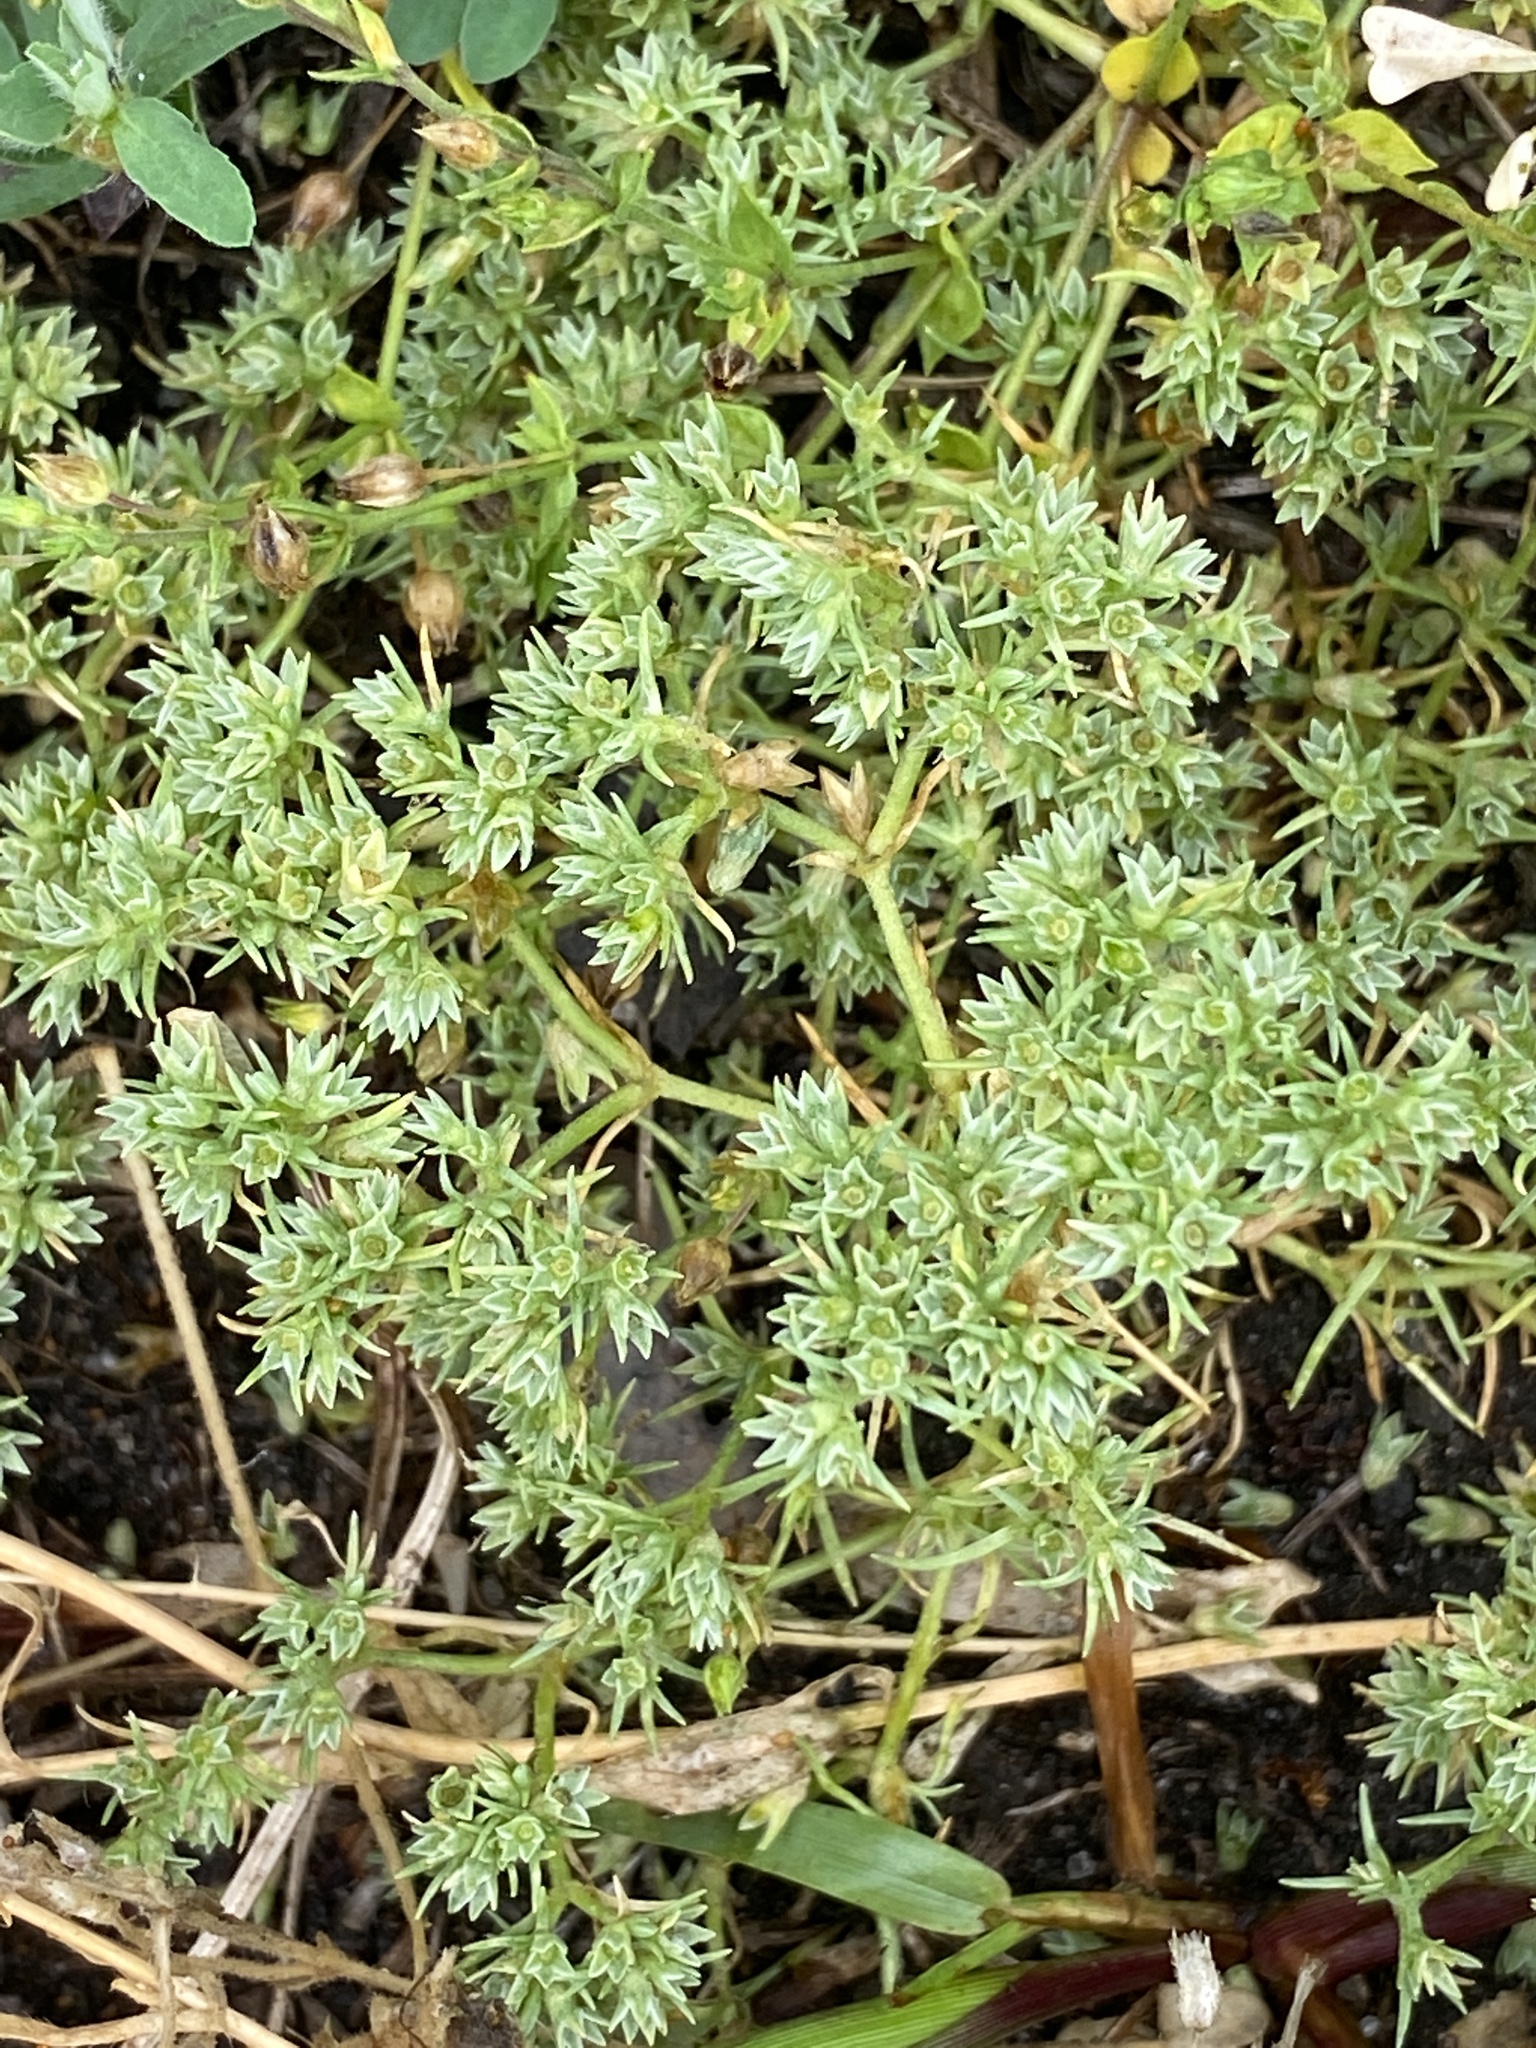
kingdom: Plantae
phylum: Tracheophyta
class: Magnoliopsida
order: Caryophyllales
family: Caryophyllaceae
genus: Scleranthus
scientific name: Scleranthus annuus
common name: Annual knawel
